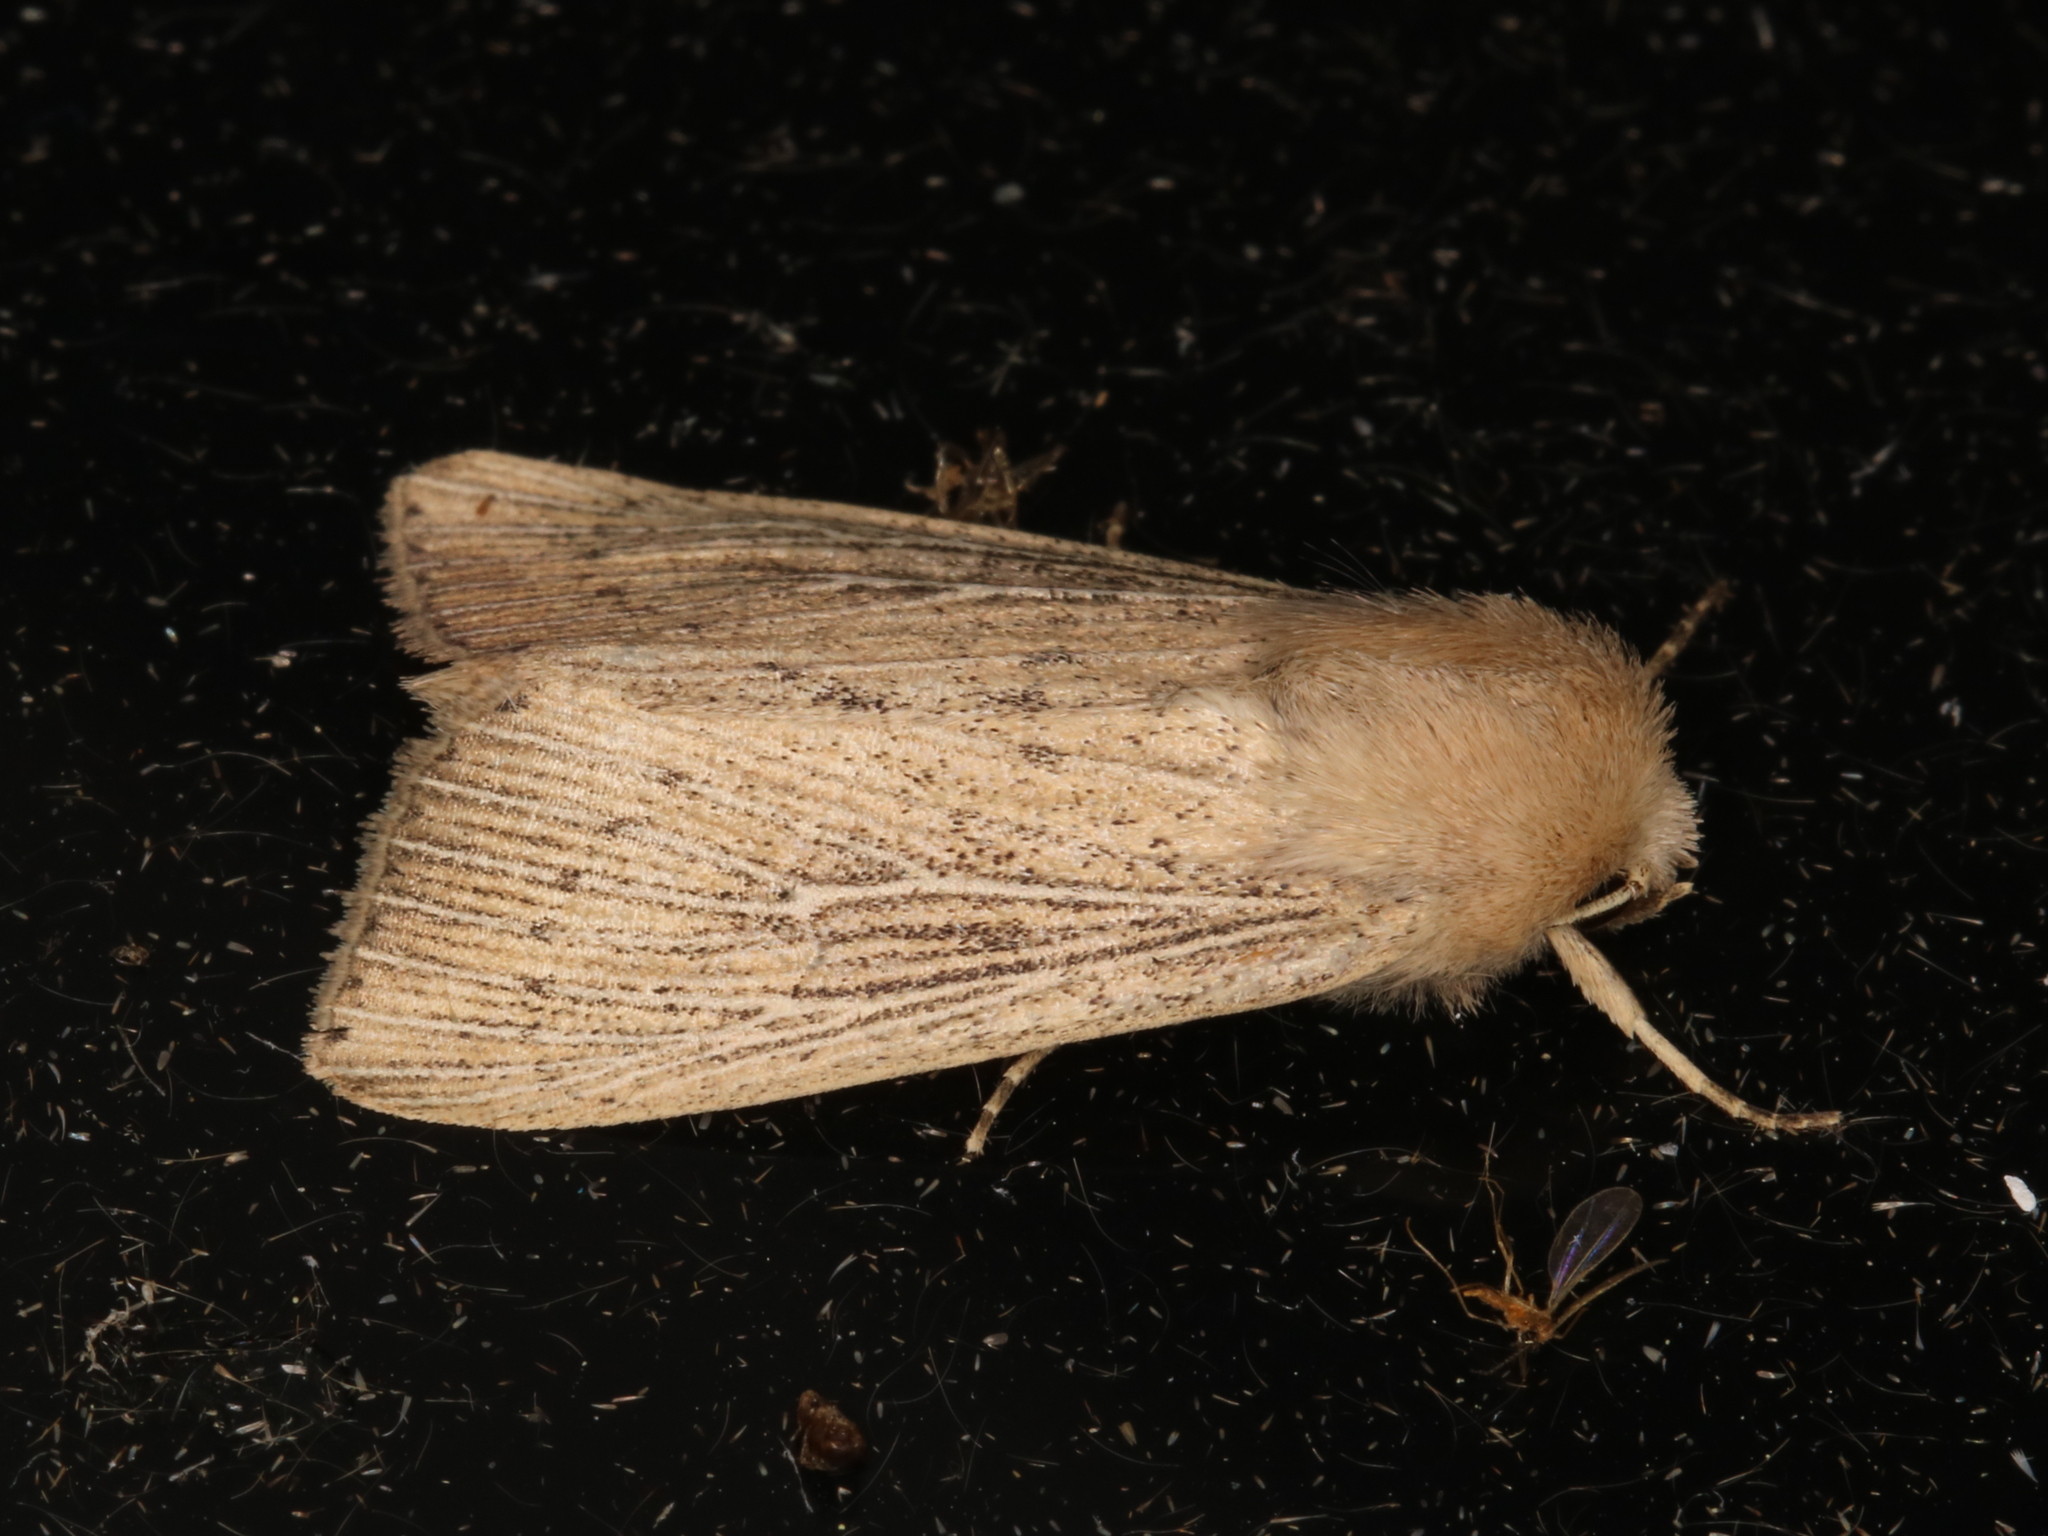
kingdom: Animalia
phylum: Arthropoda
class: Insecta
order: Lepidoptera
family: Noctuidae
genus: Leucania
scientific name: Leucania obsoleta
